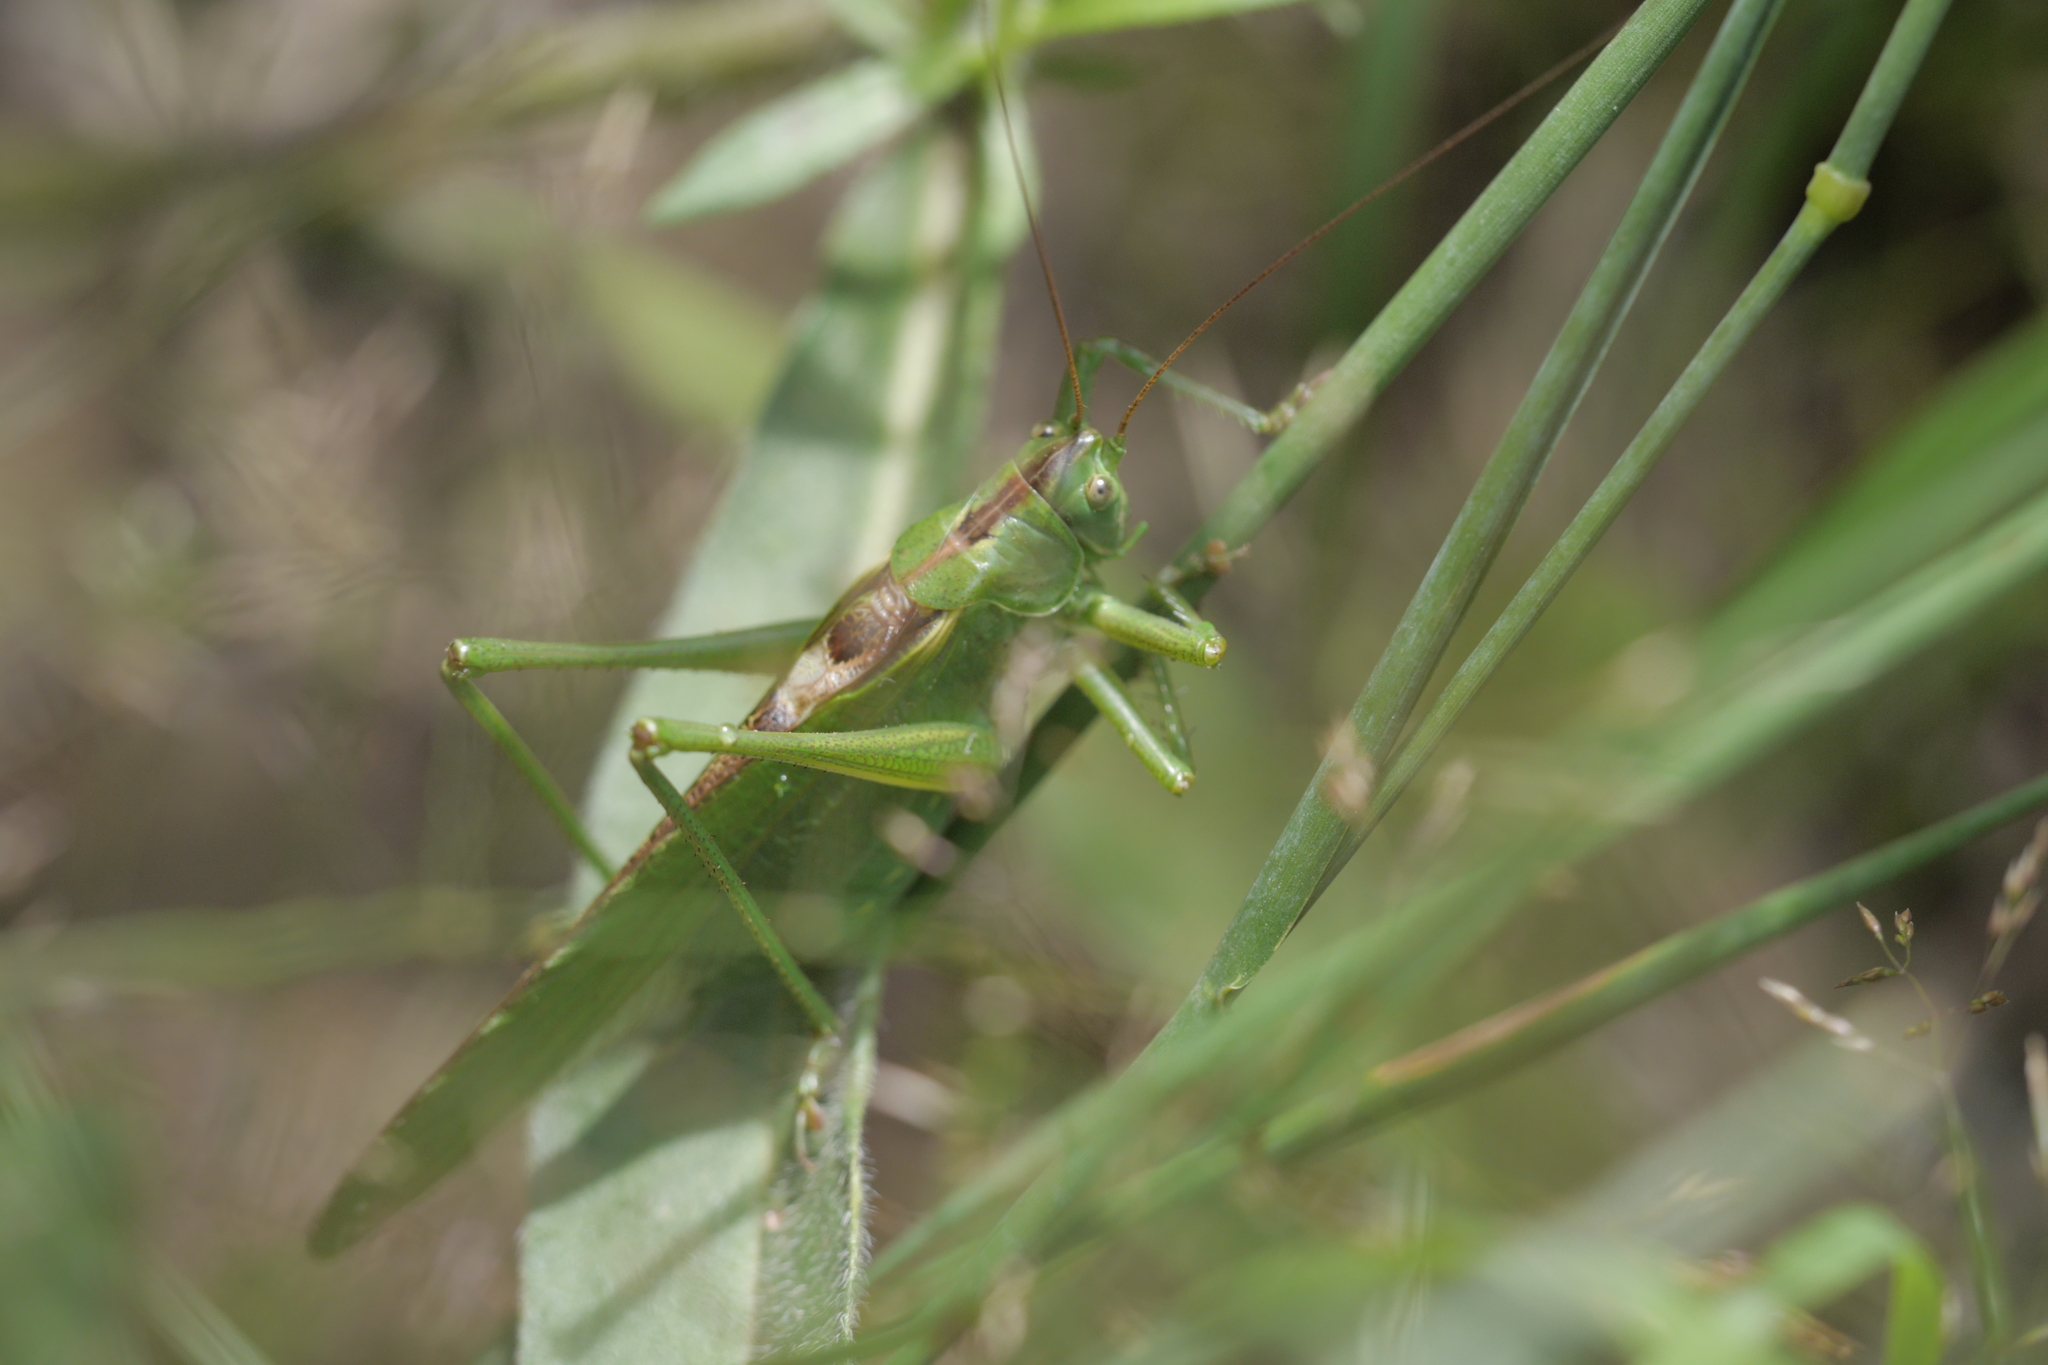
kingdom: Animalia
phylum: Arthropoda
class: Insecta
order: Orthoptera
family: Tettigoniidae
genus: Tettigonia
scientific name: Tettigonia viridissima
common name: Great green bush-cricket
